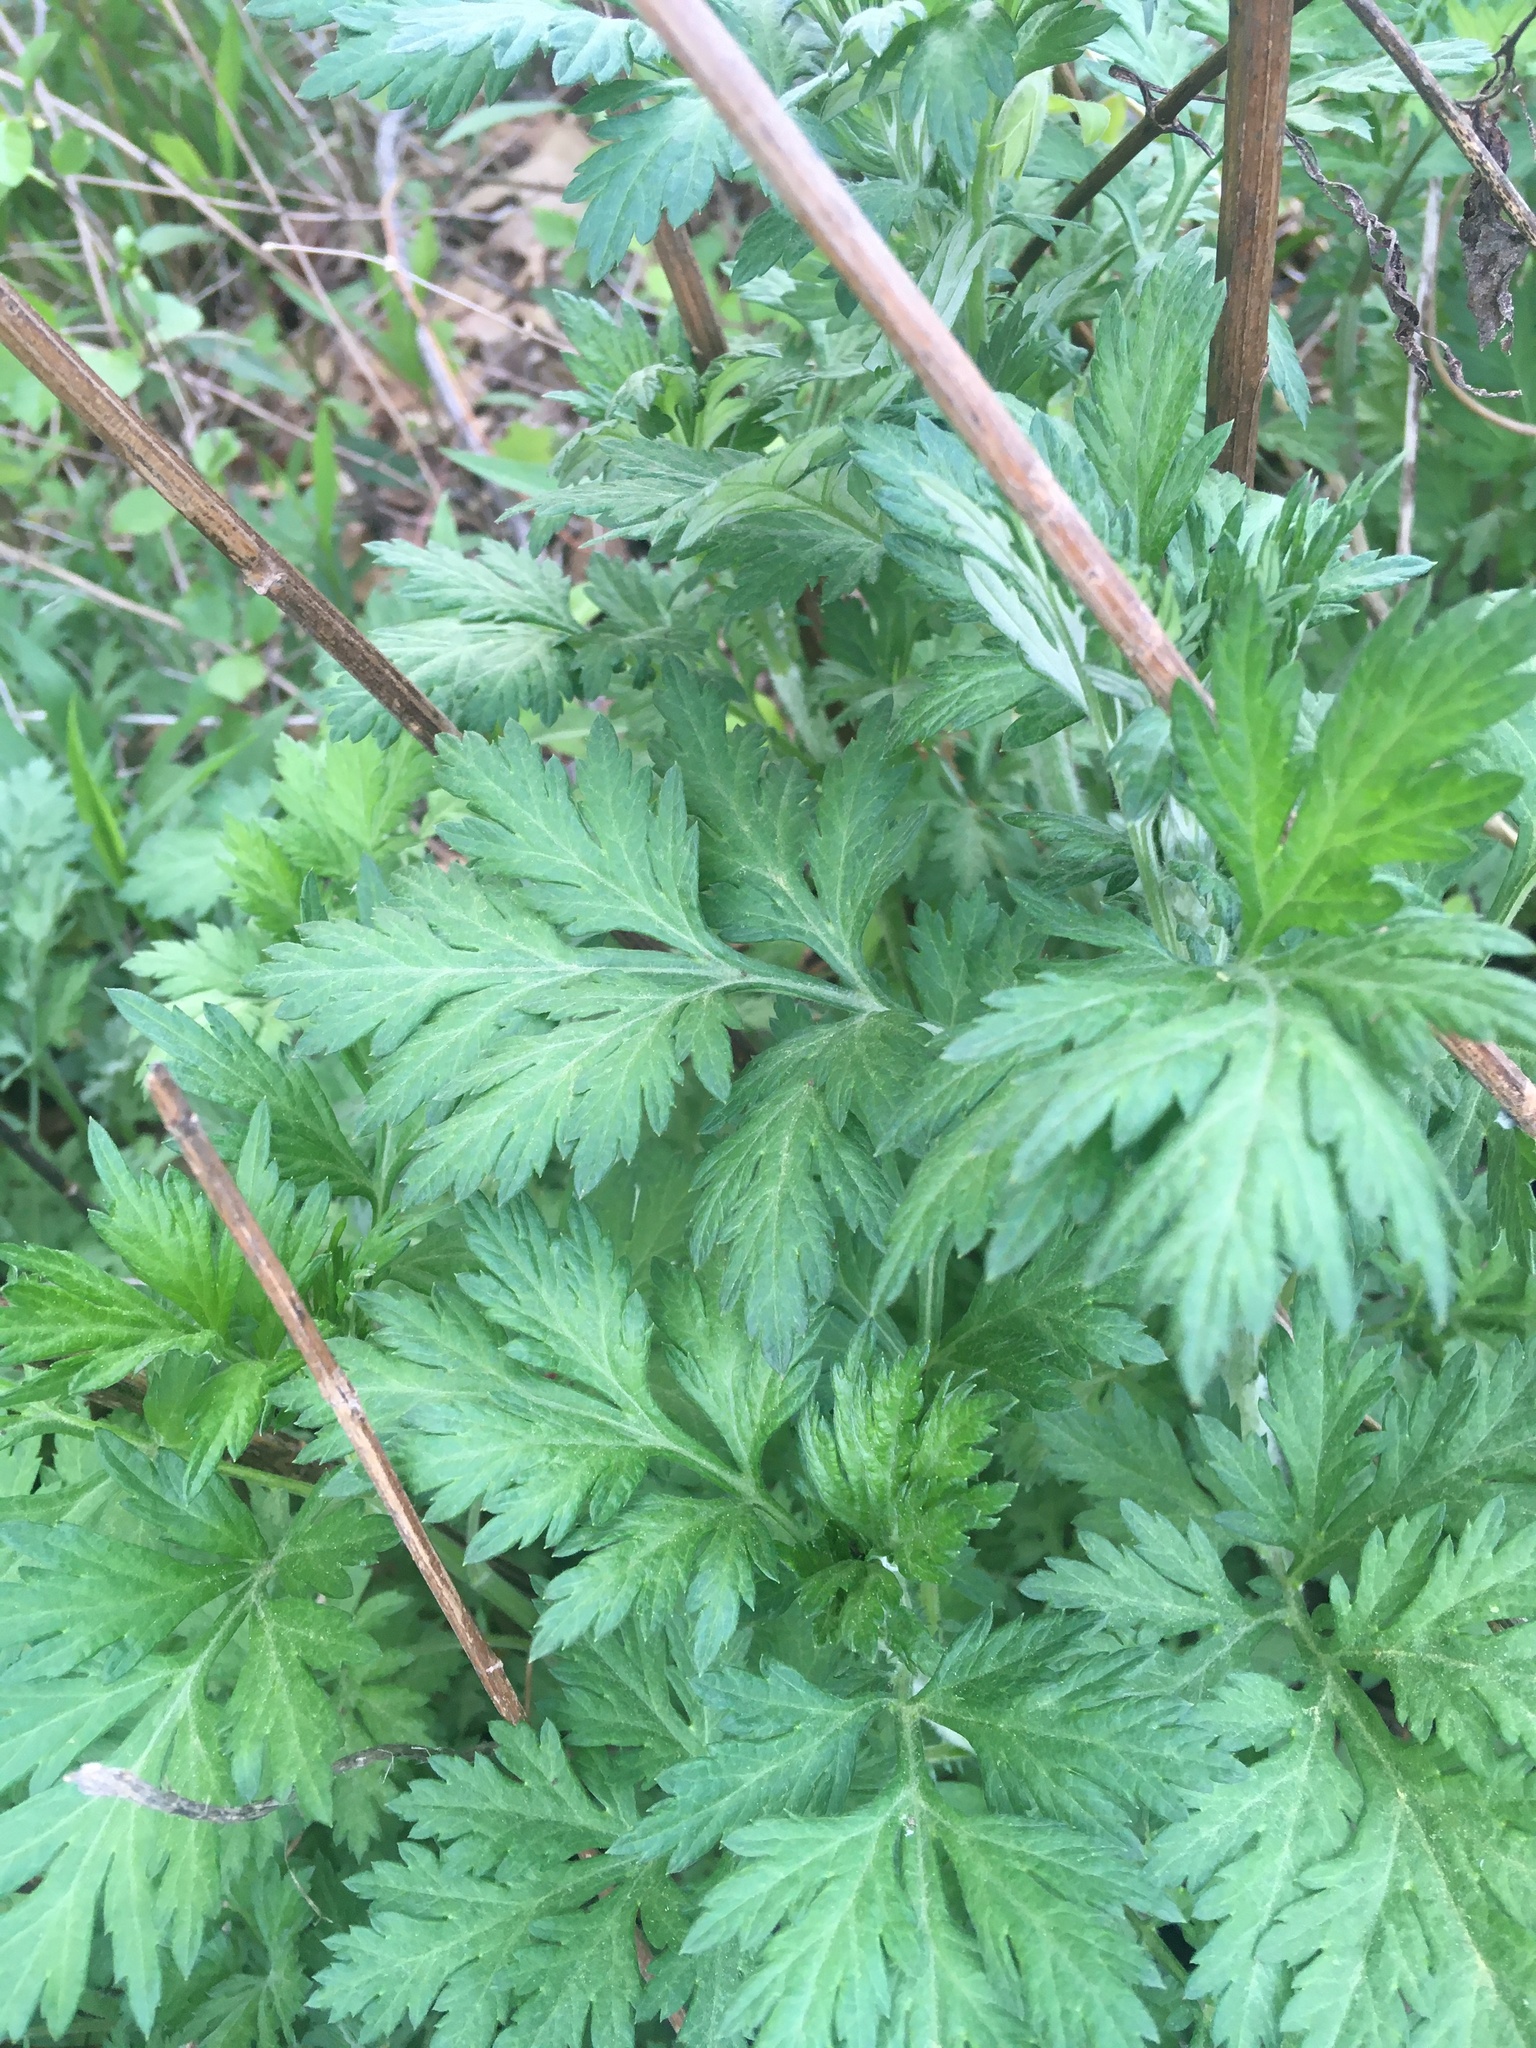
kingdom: Plantae
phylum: Tracheophyta
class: Magnoliopsida
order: Asterales
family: Asteraceae
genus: Artemisia
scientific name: Artemisia vulgaris
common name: Mugwort
